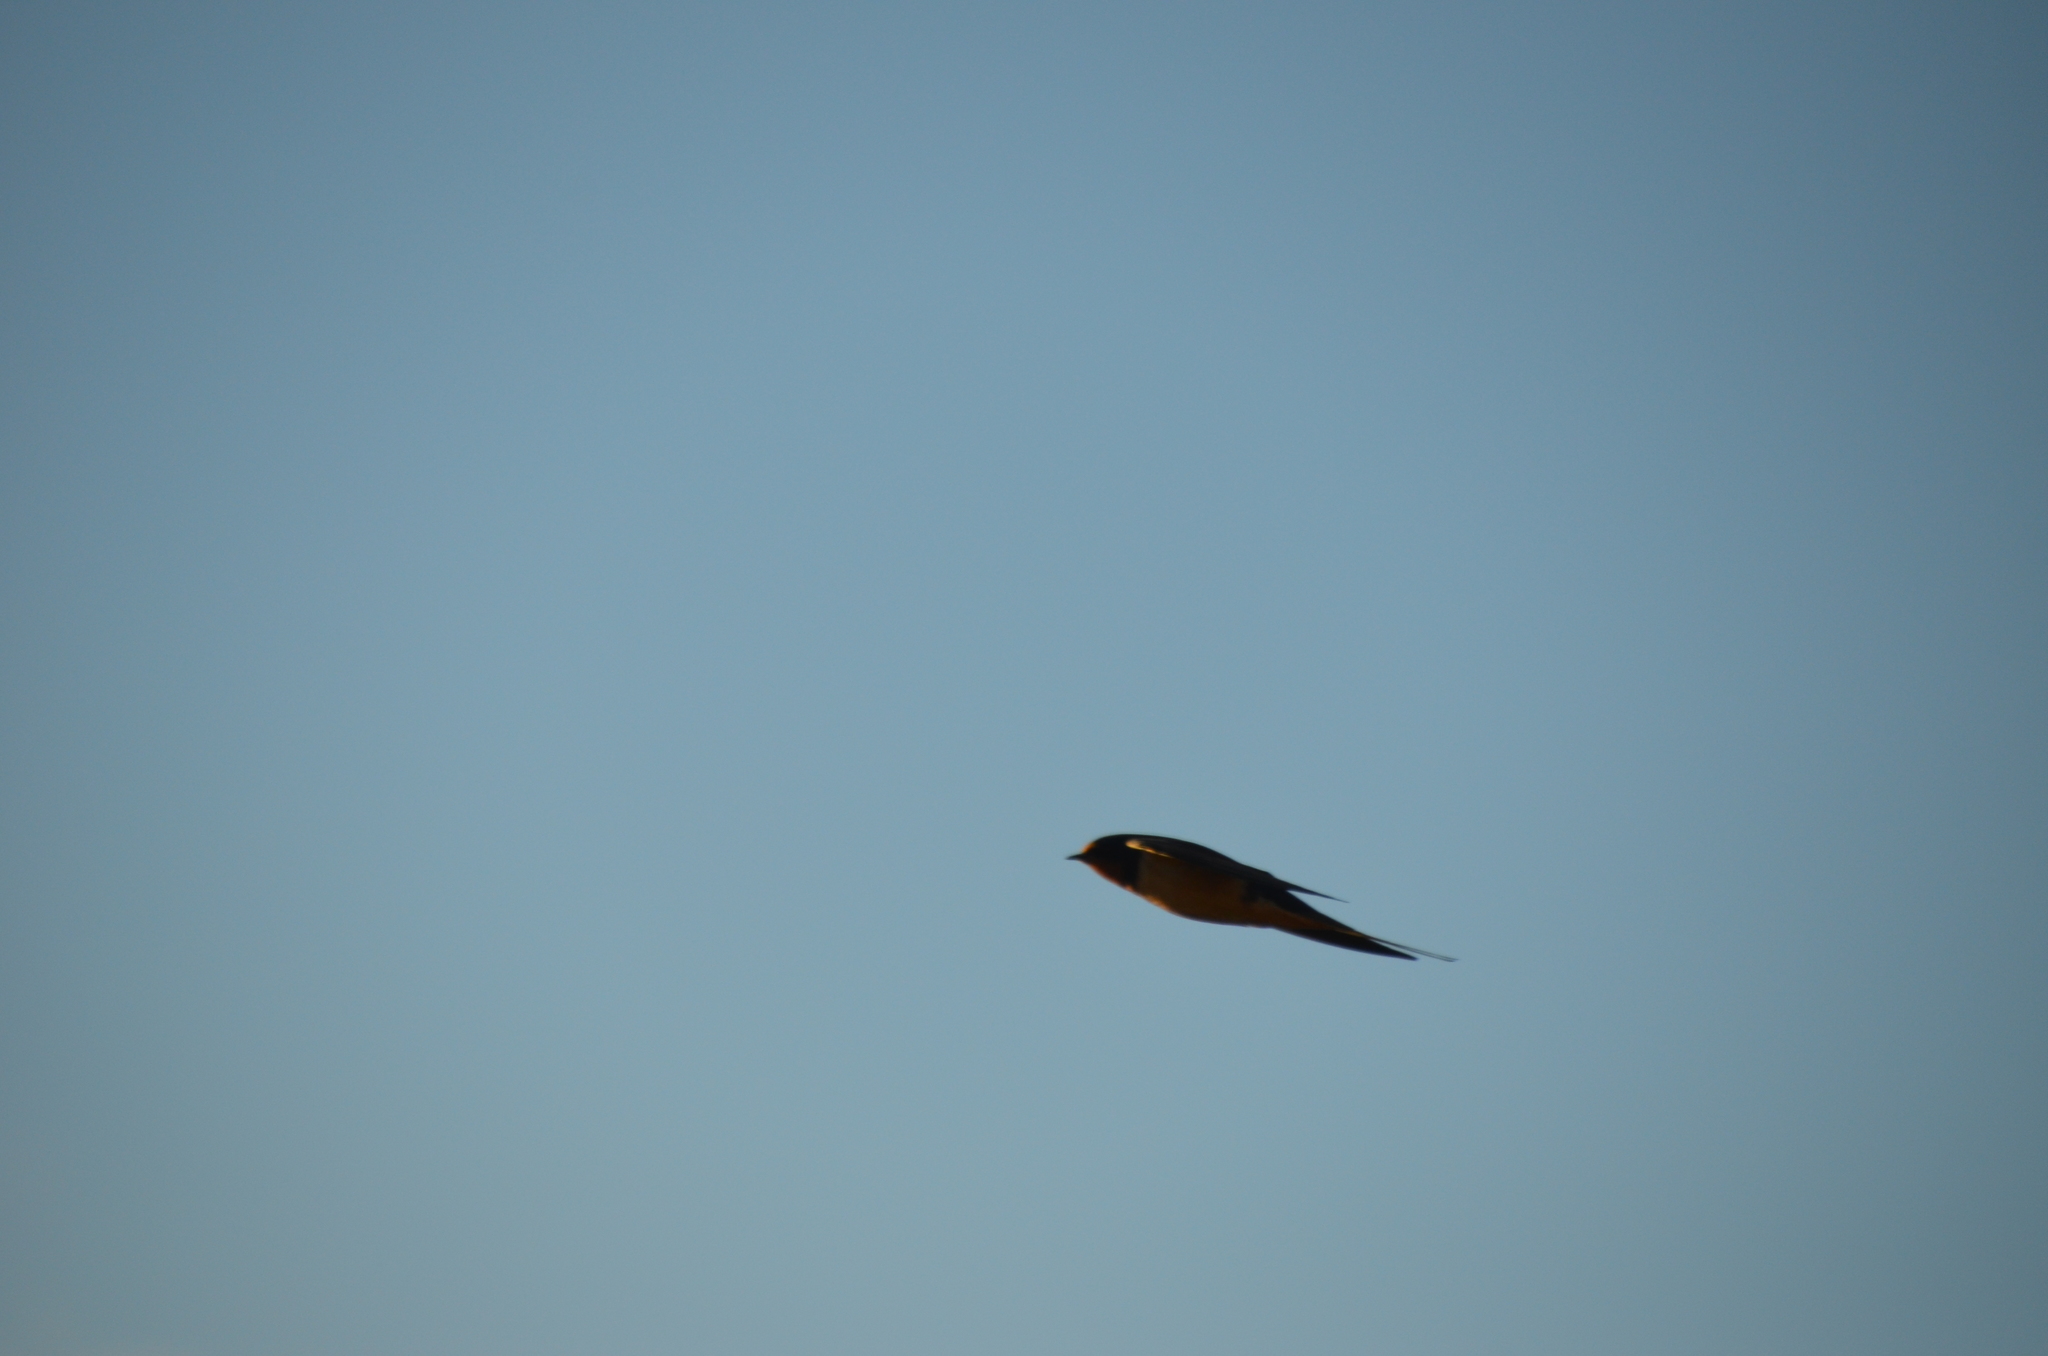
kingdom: Animalia
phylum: Chordata
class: Aves
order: Passeriformes
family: Hirundinidae
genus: Hirundo
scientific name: Hirundo rustica
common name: Barn swallow
